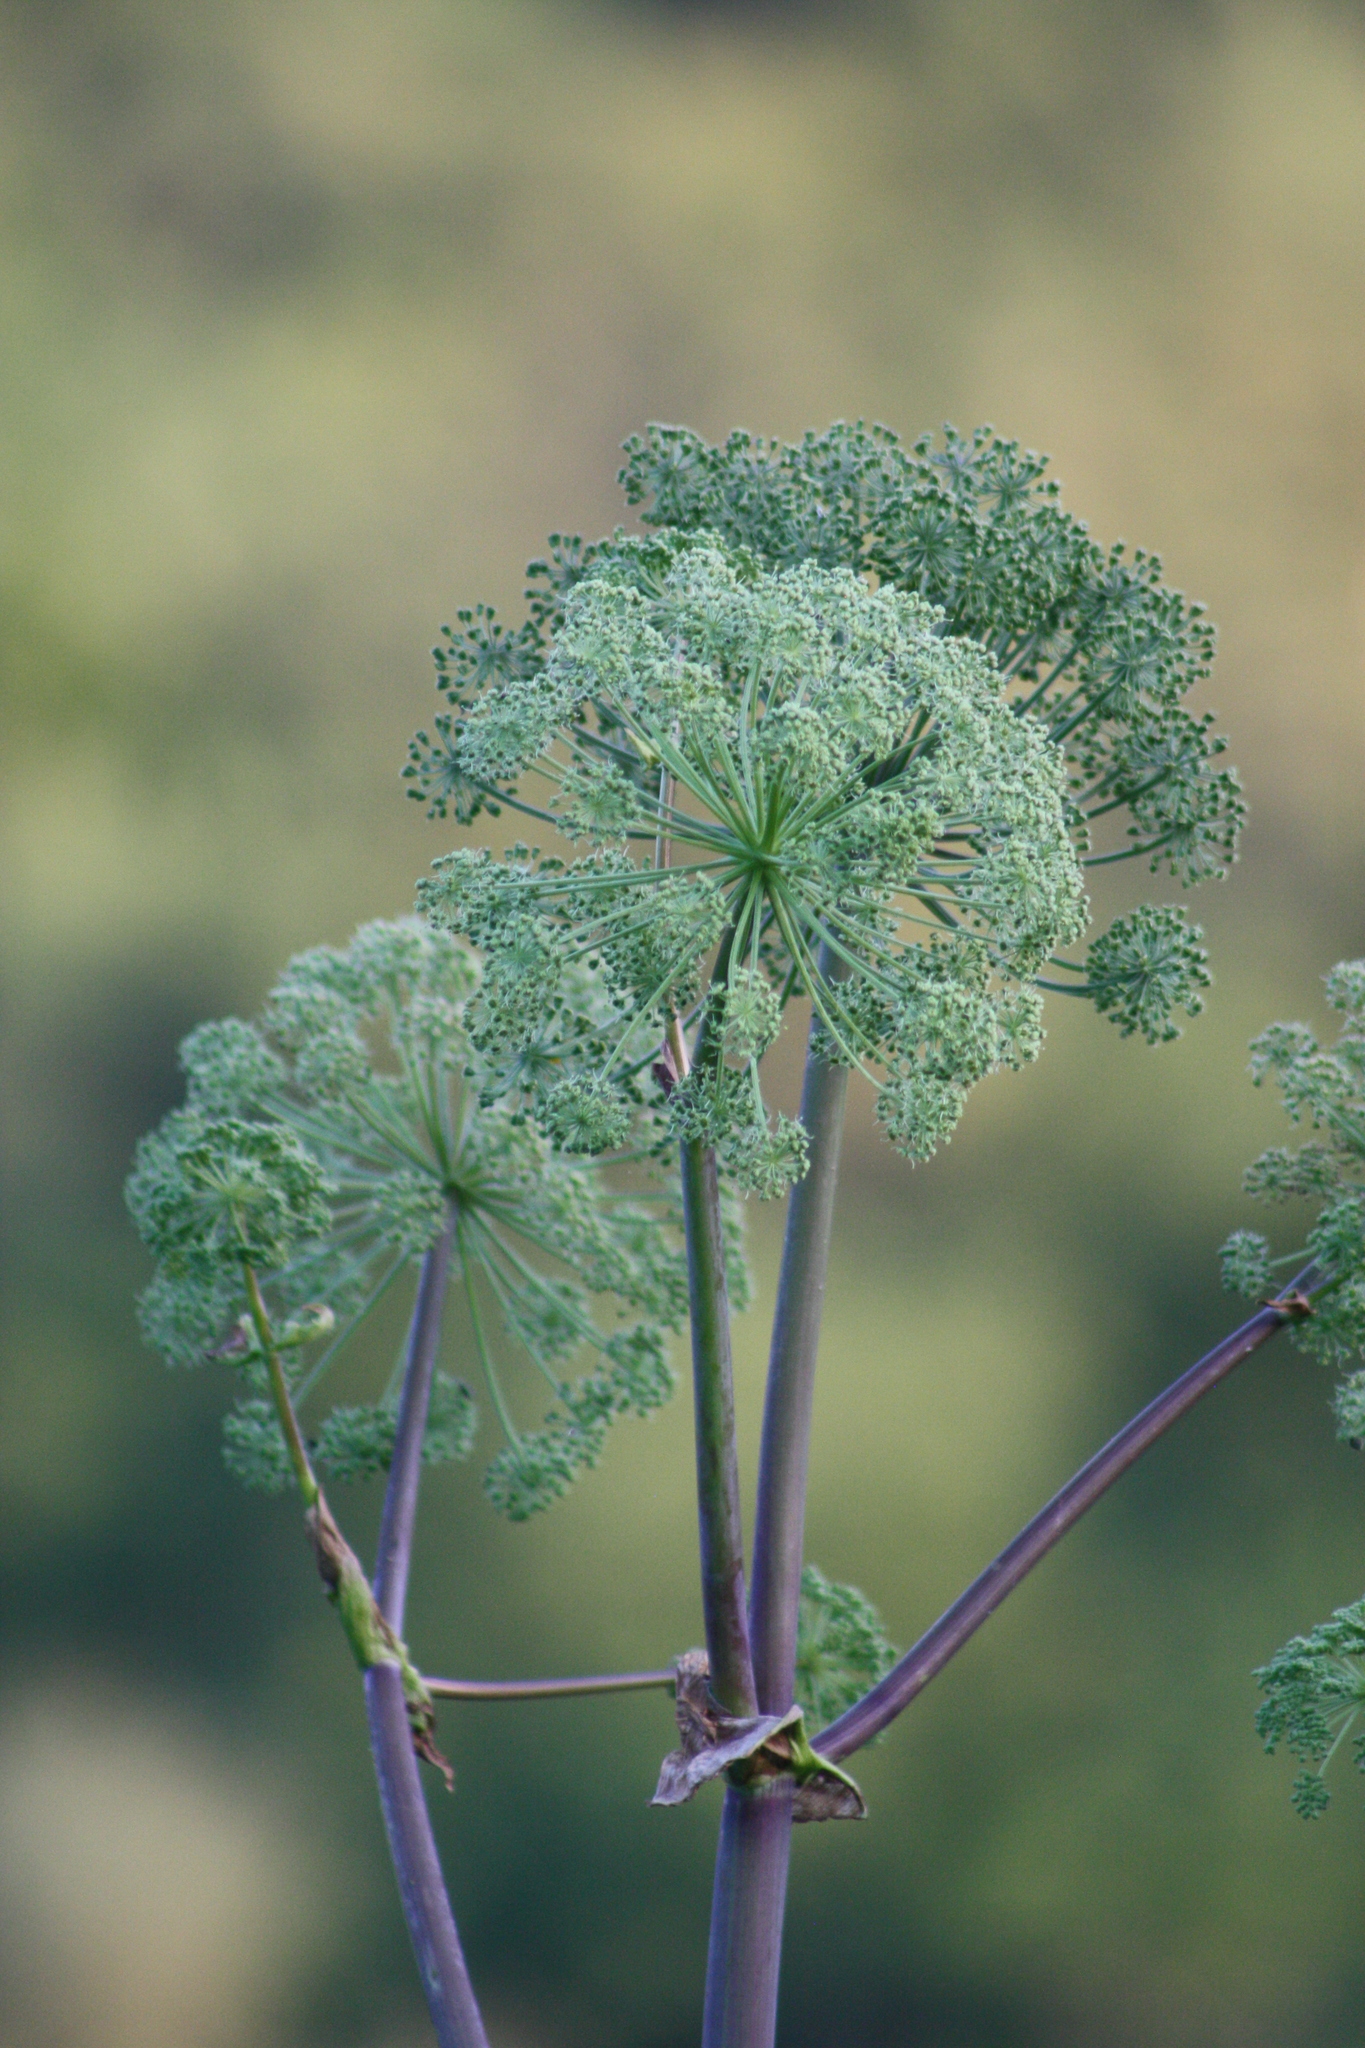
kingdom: Plantae
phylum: Tracheophyta
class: Magnoliopsida
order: Apiales
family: Apiaceae
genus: Angelica
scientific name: Angelica atropurpurea
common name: Great angelica
